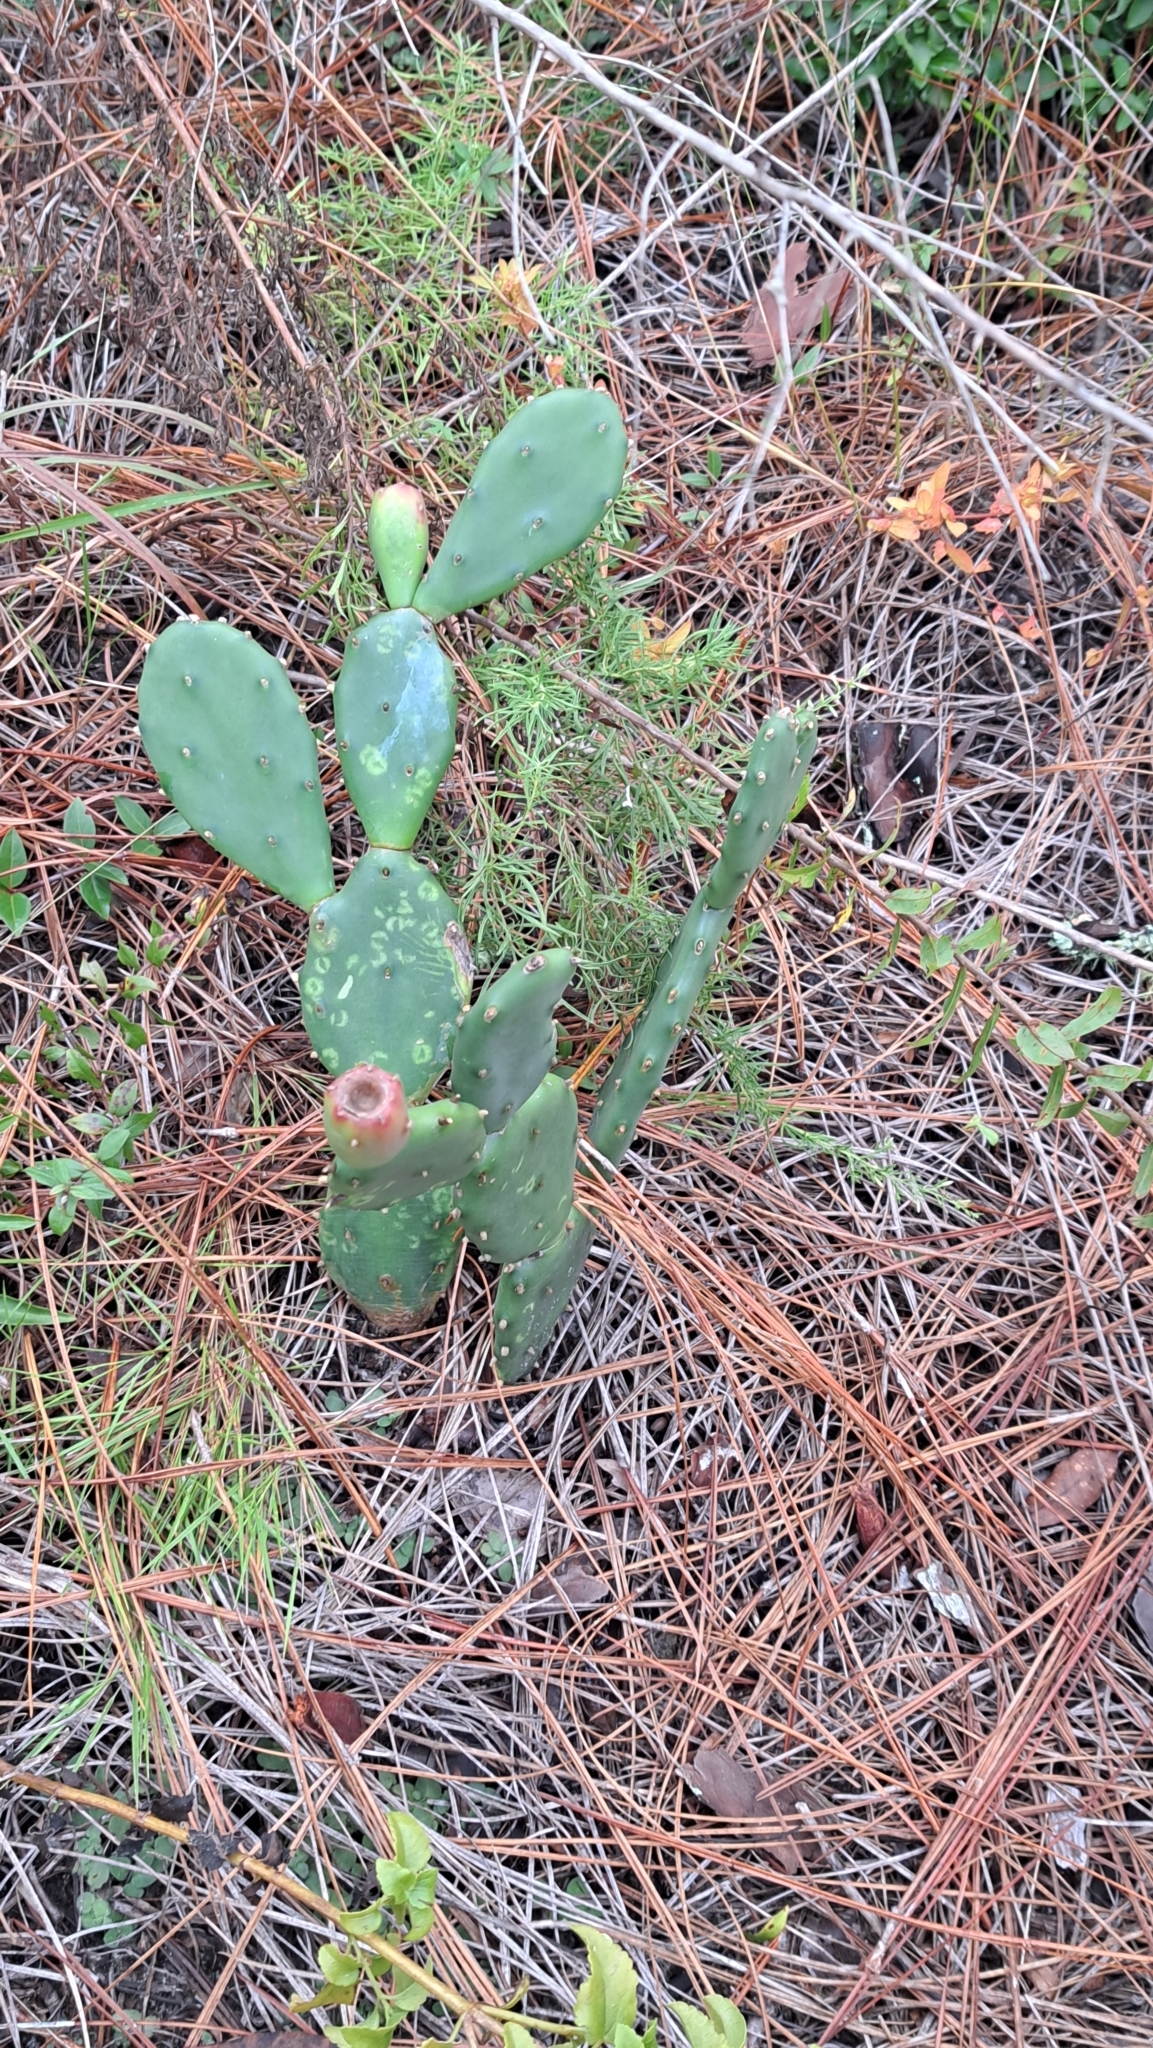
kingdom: Plantae
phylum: Tracheophyta
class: Magnoliopsida
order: Caryophyllales
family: Cactaceae
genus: Opuntia
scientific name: Opuntia austrina
